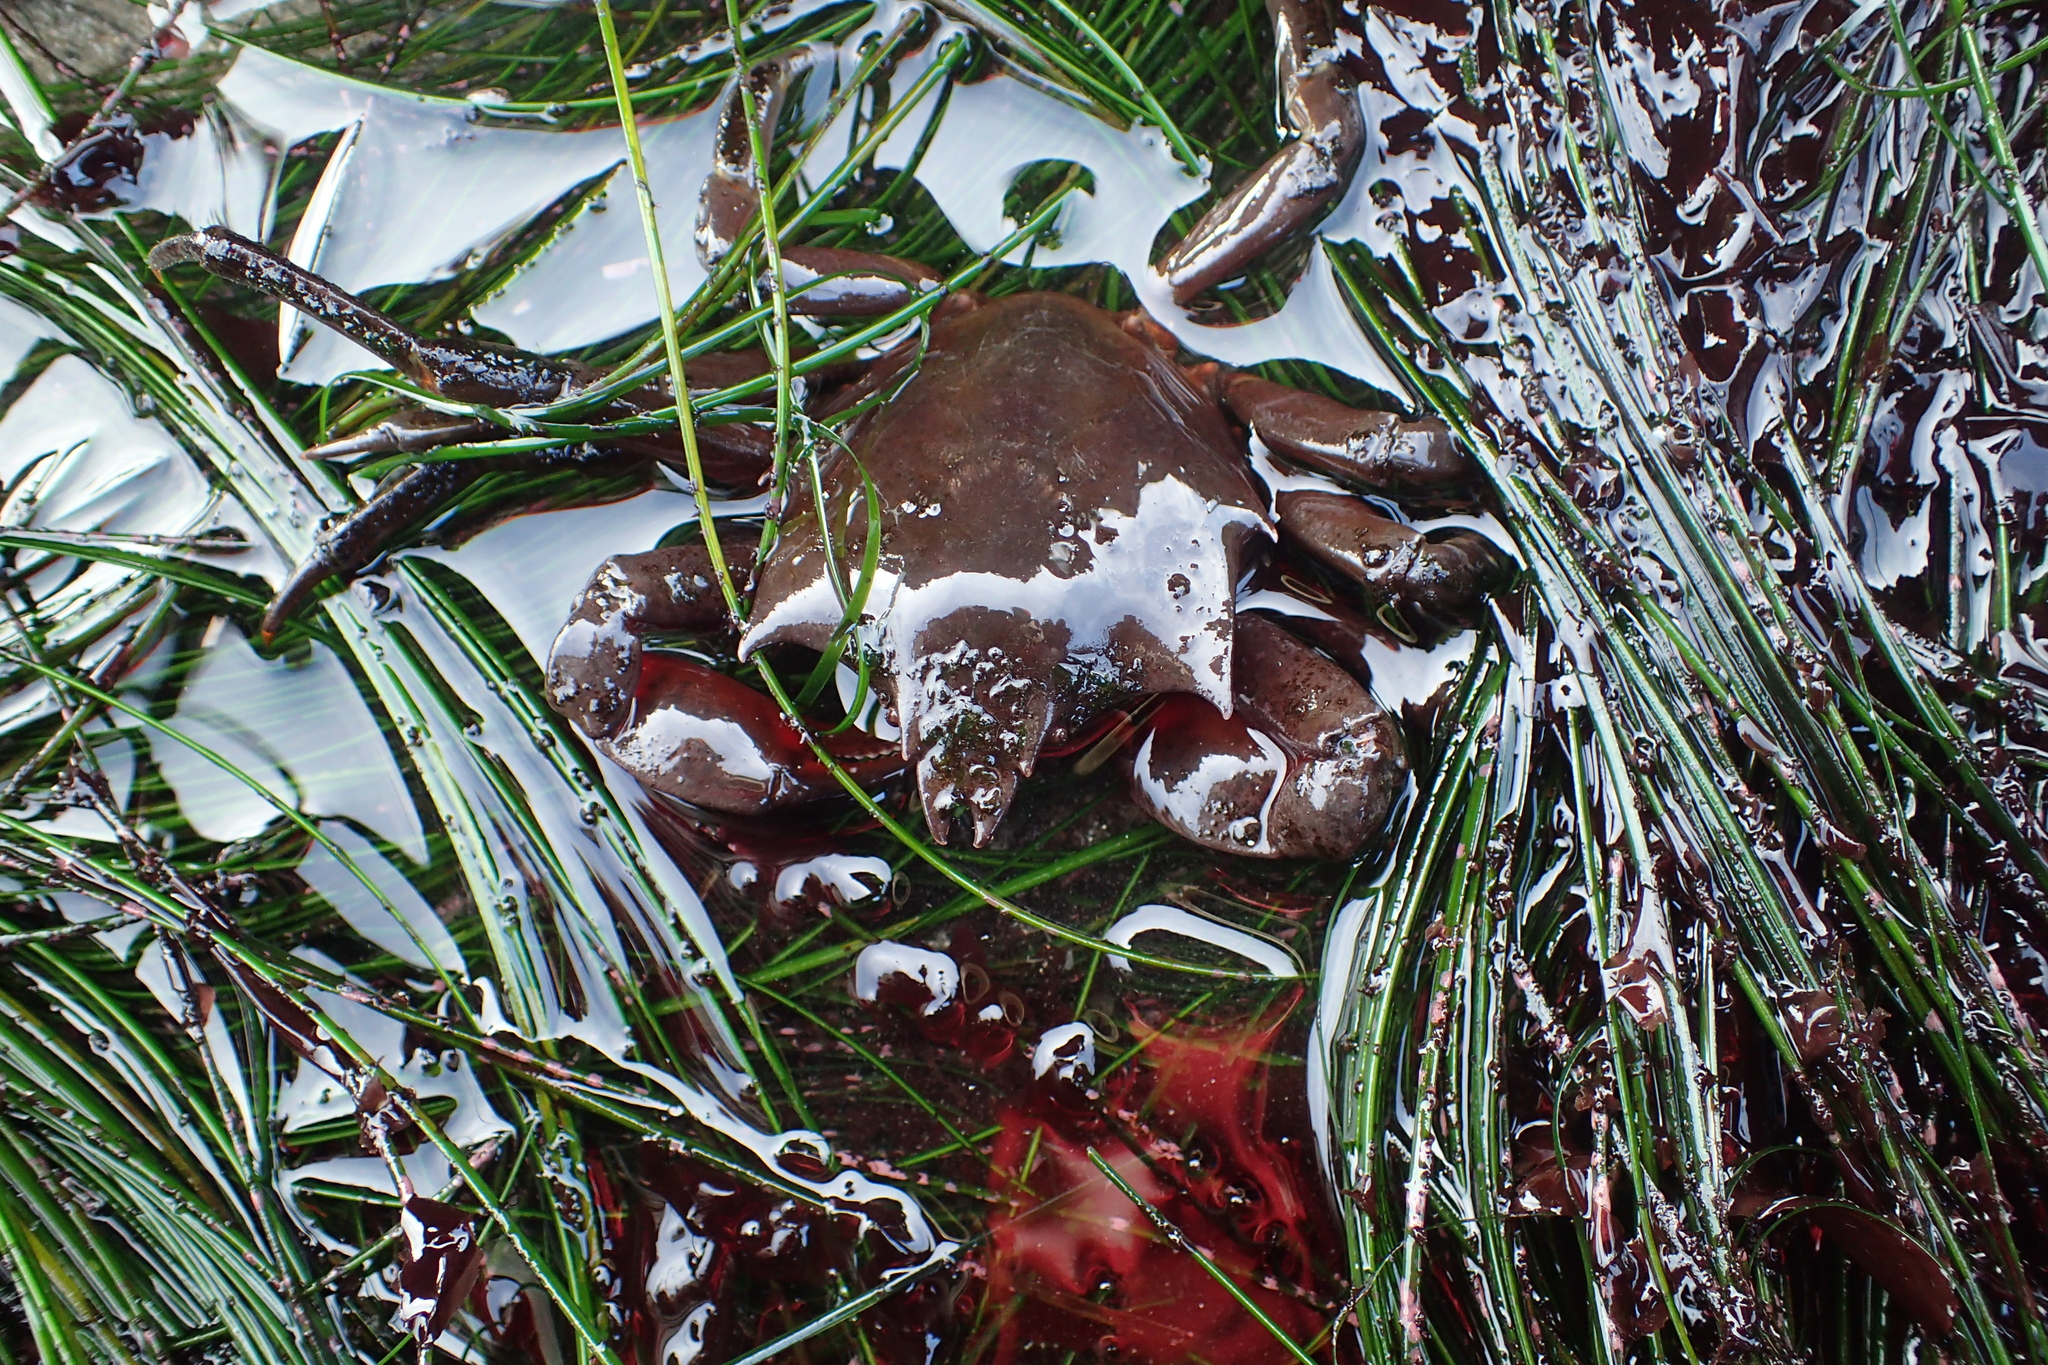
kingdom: Animalia
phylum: Arthropoda
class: Malacostraca
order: Decapoda
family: Epialtidae
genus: Pugettia
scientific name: Pugettia producta
